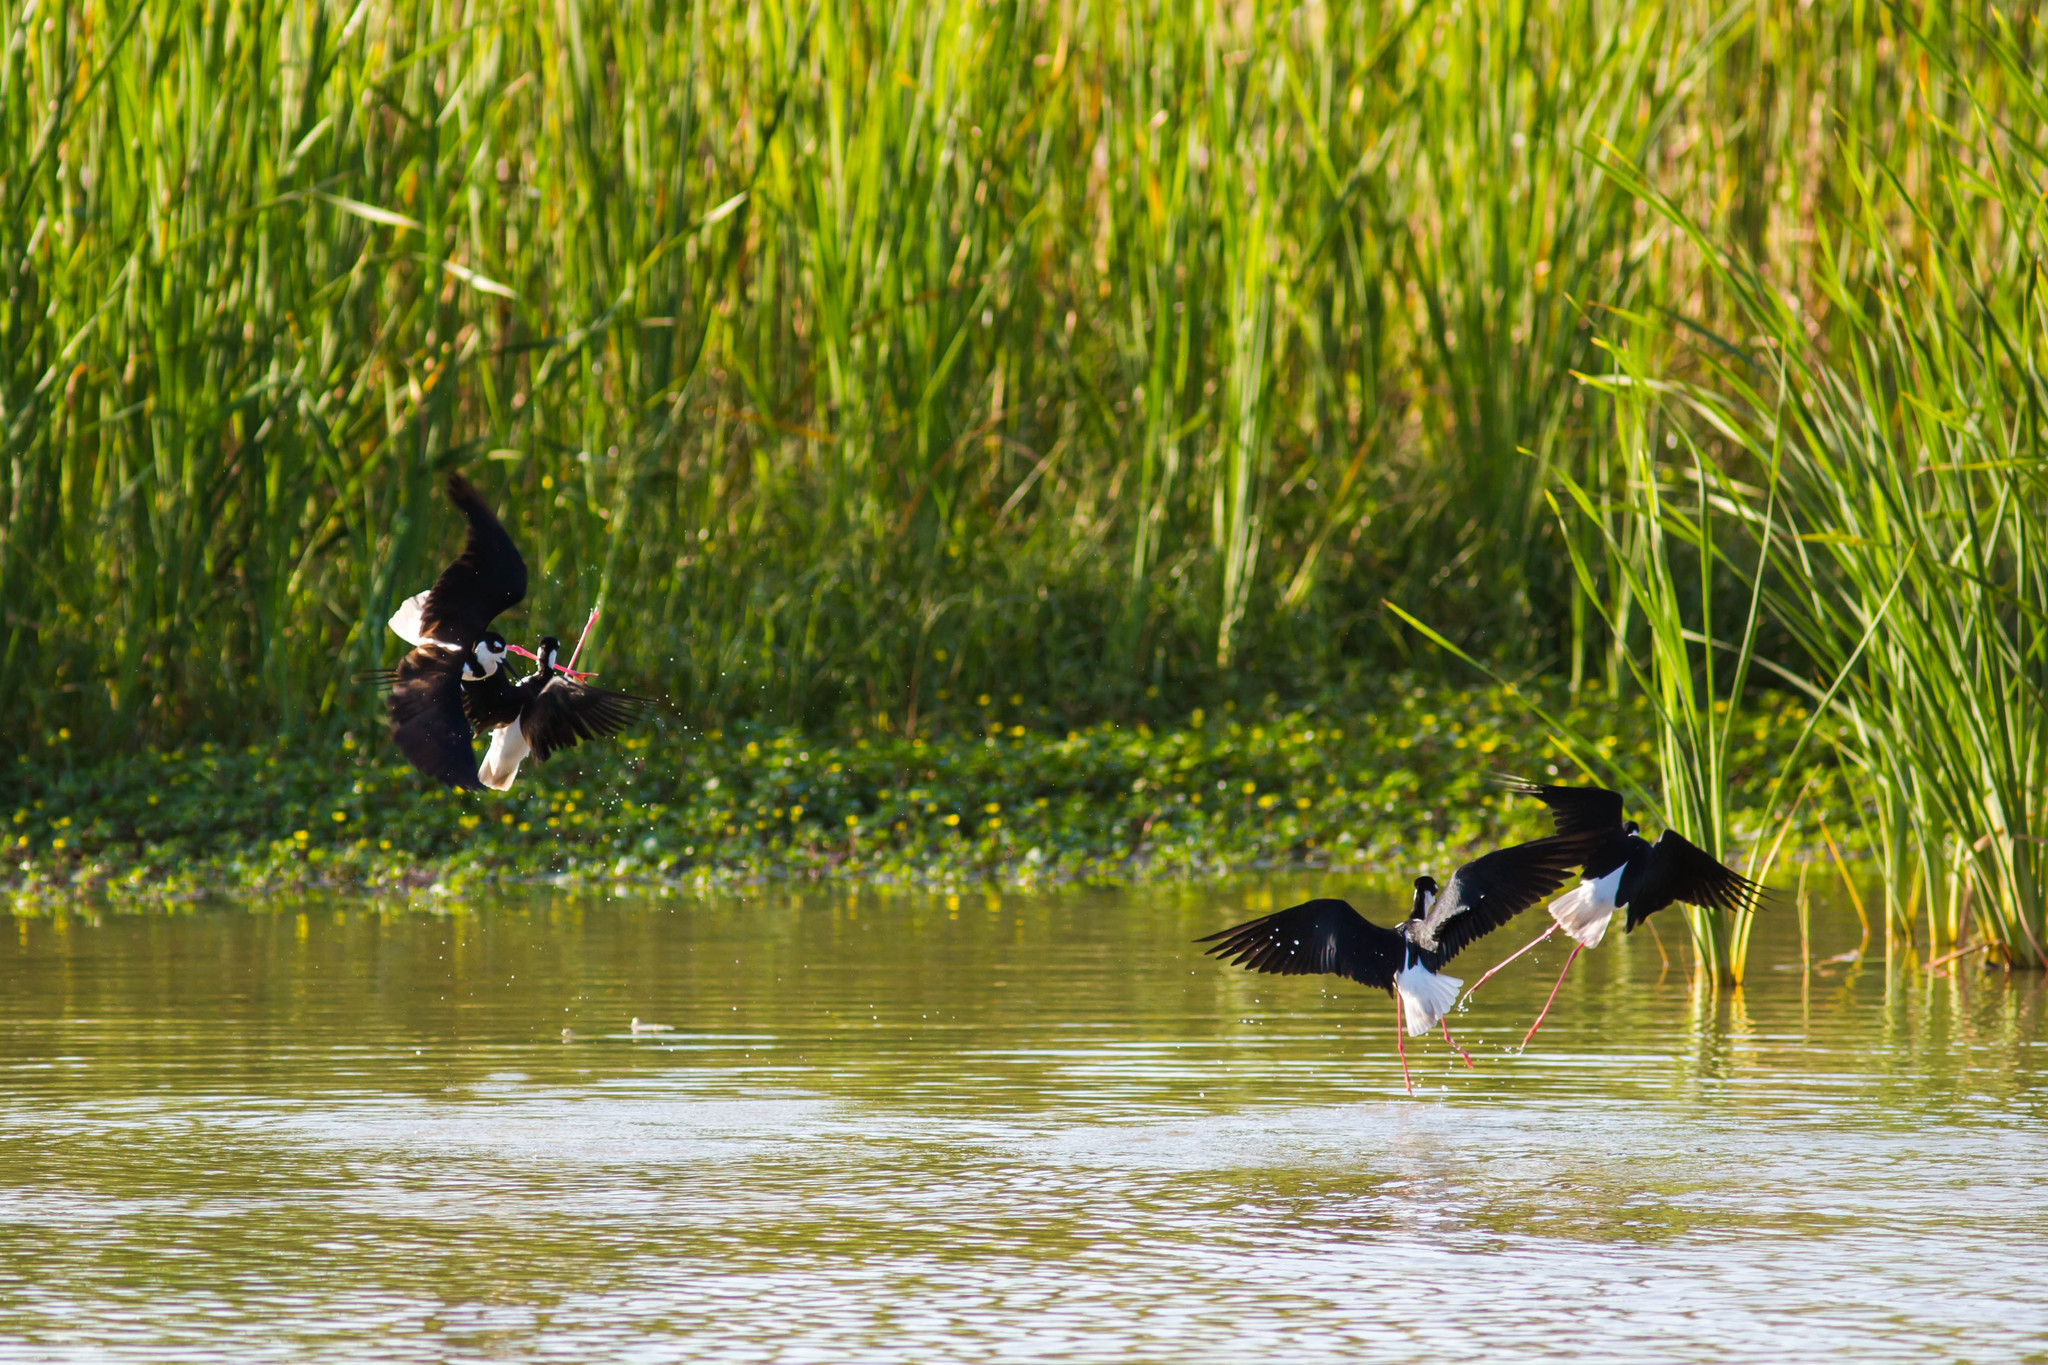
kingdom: Animalia
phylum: Chordata
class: Aves
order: Charadriiformes
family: Recurvirostridae
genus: Himantopus
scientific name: Himantopus mexicanus
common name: Black-necked stilt
